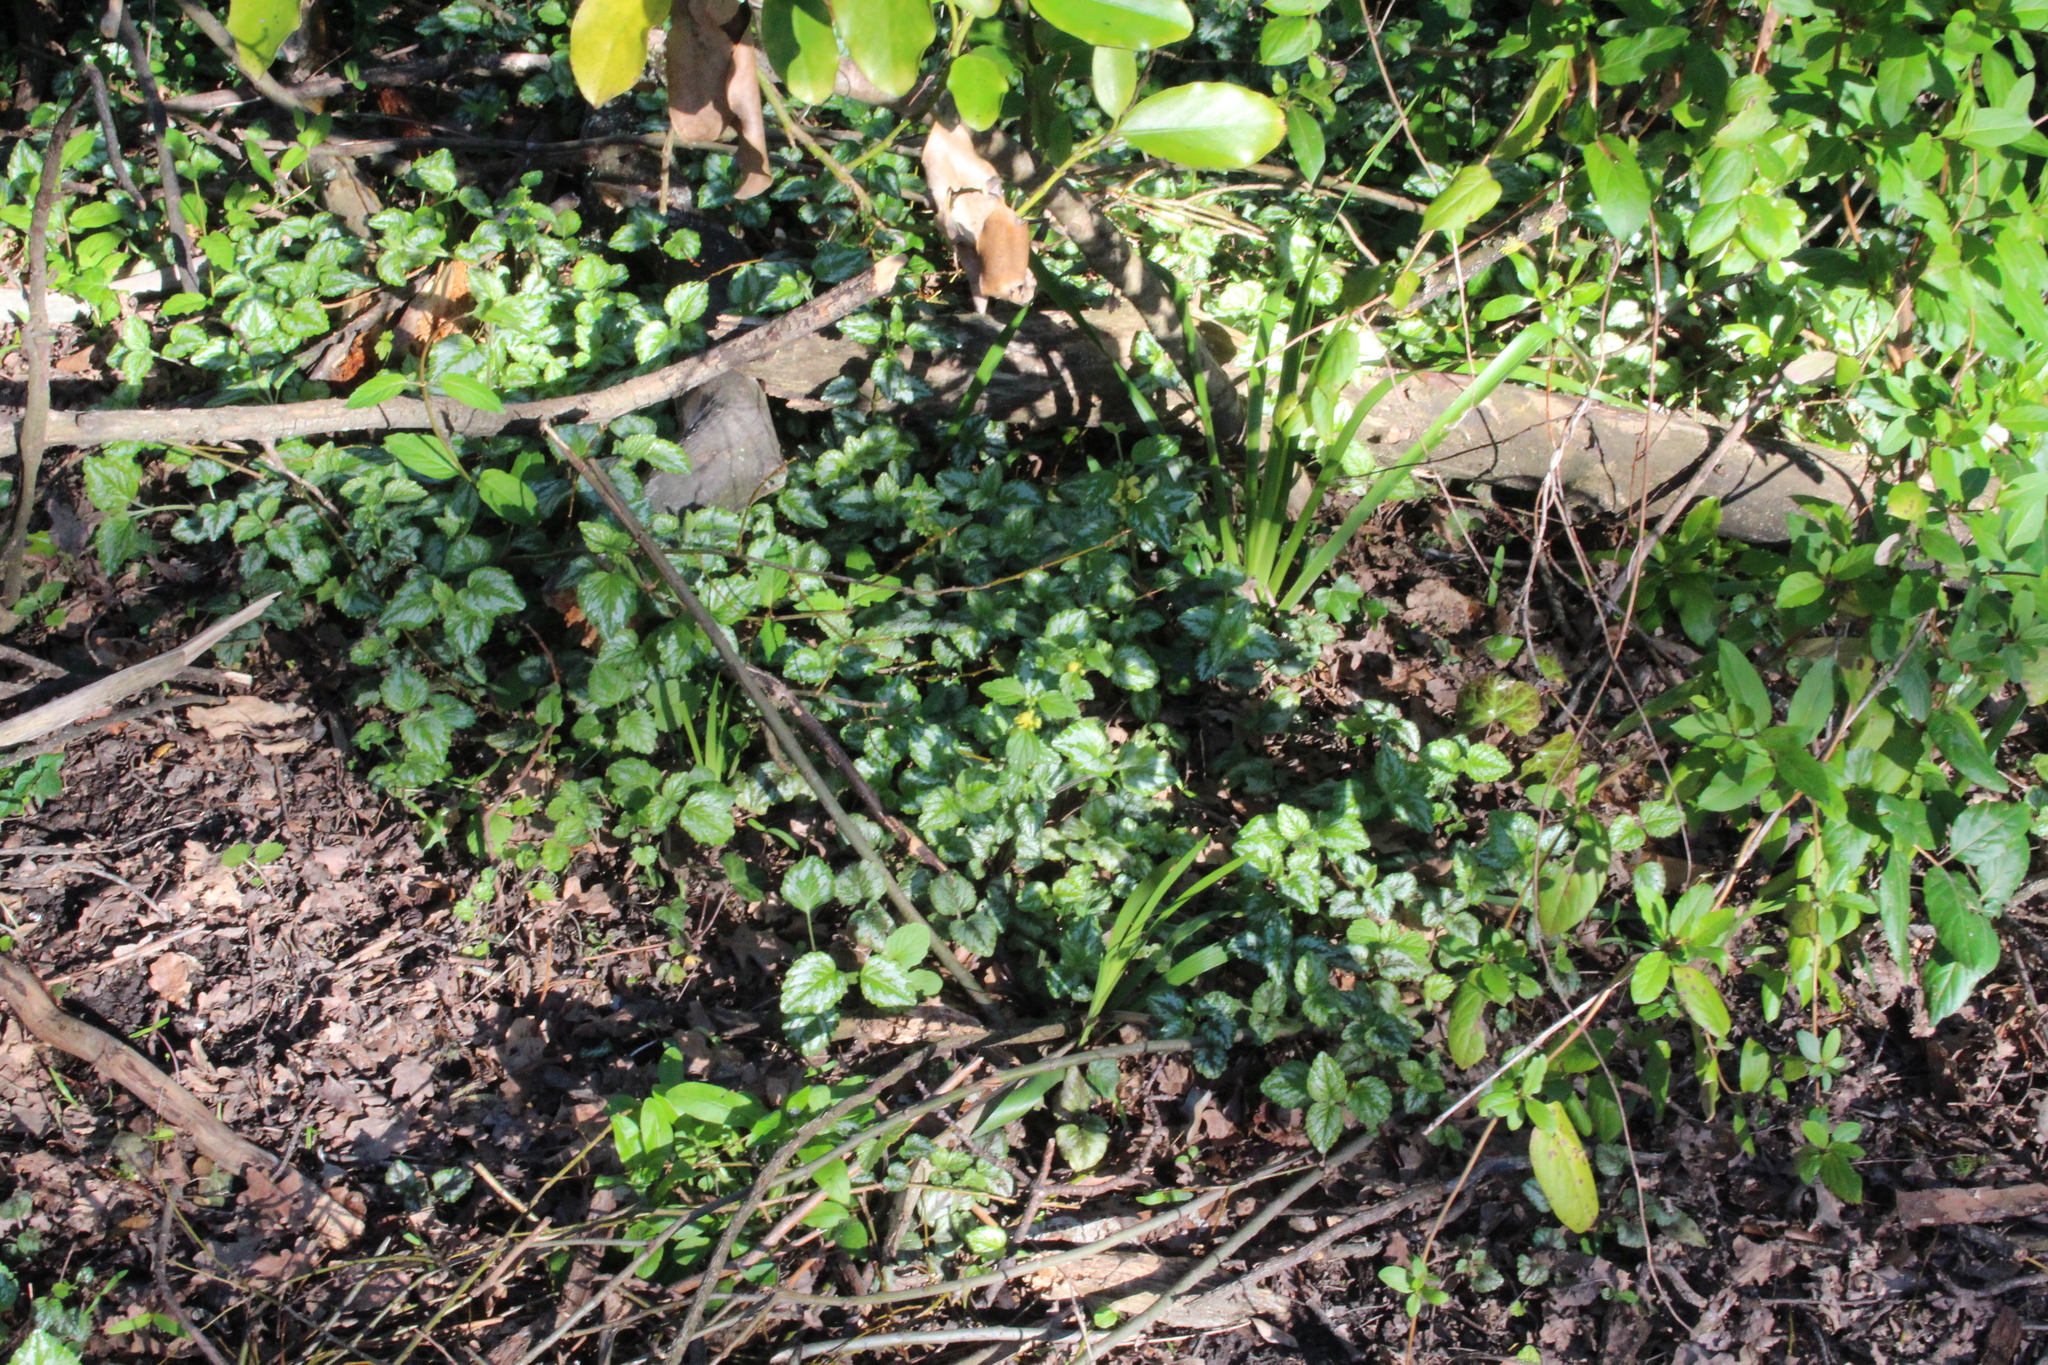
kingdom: Plantae
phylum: Tracheophyta
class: Magnoliopsida
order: Lamiales
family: Lamiaceae
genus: Lamium
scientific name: Lamium galeobdolon
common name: Yellow archangel
